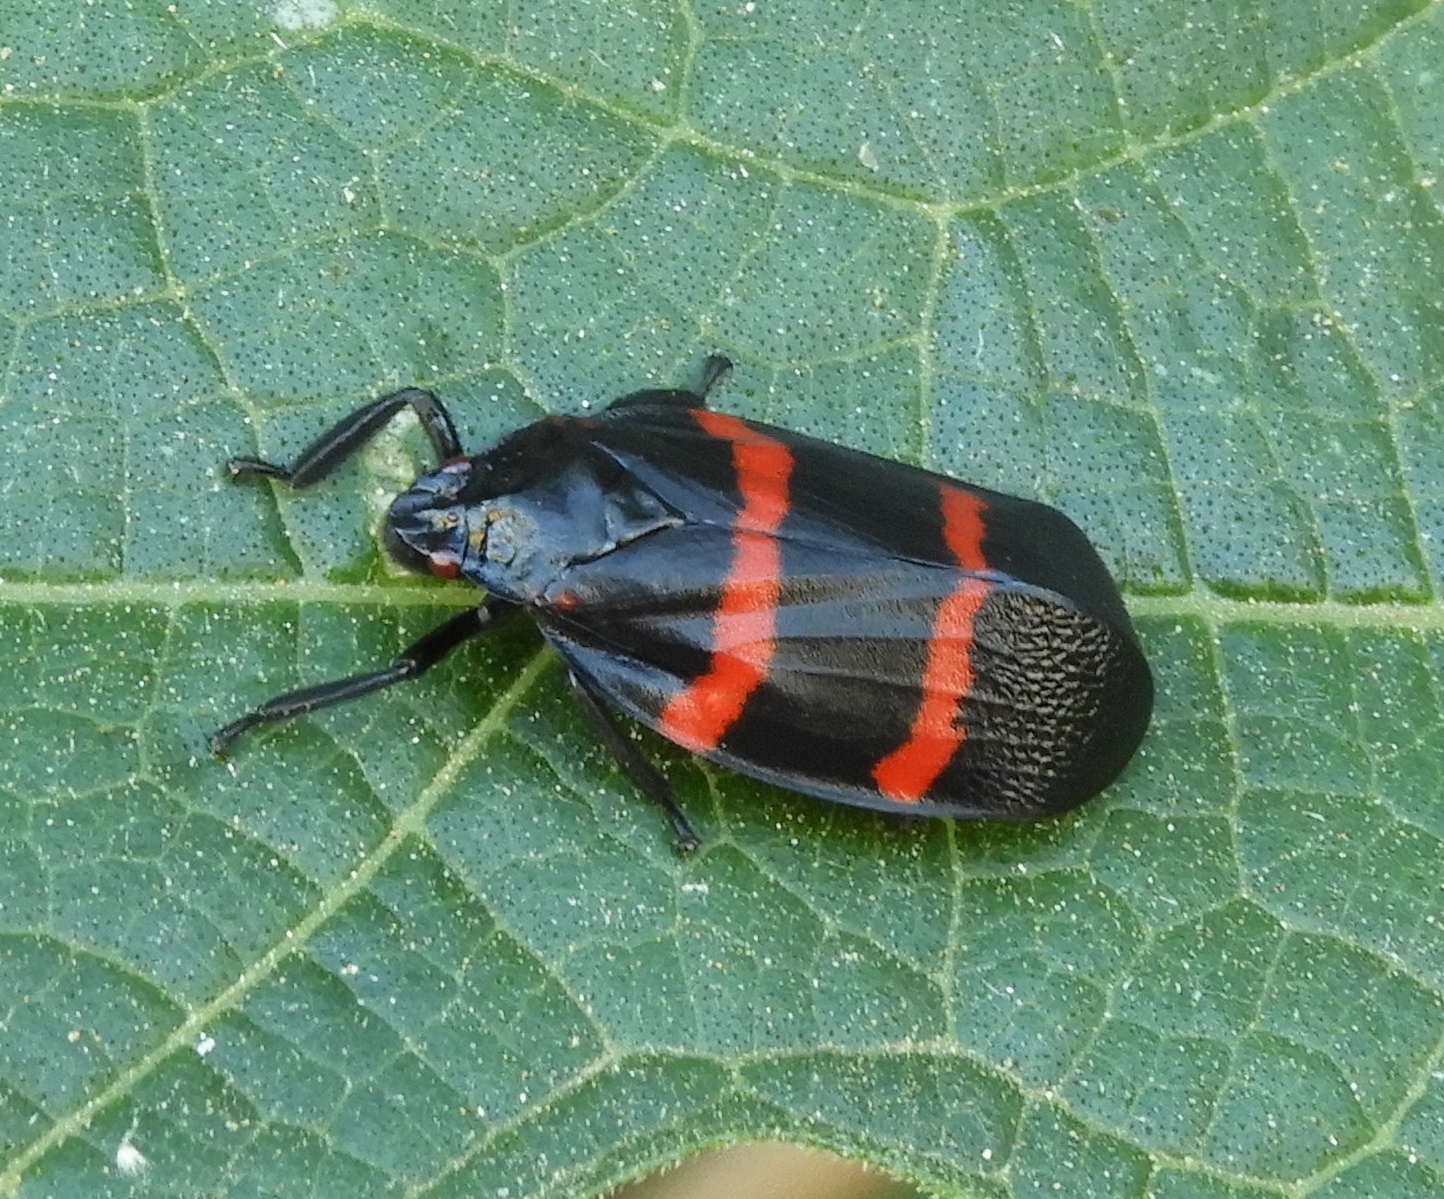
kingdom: Animalia
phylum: Arthropoda
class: Insecta
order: Hemiptera
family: Cercopidae
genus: Huaina
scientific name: Huaina inca
